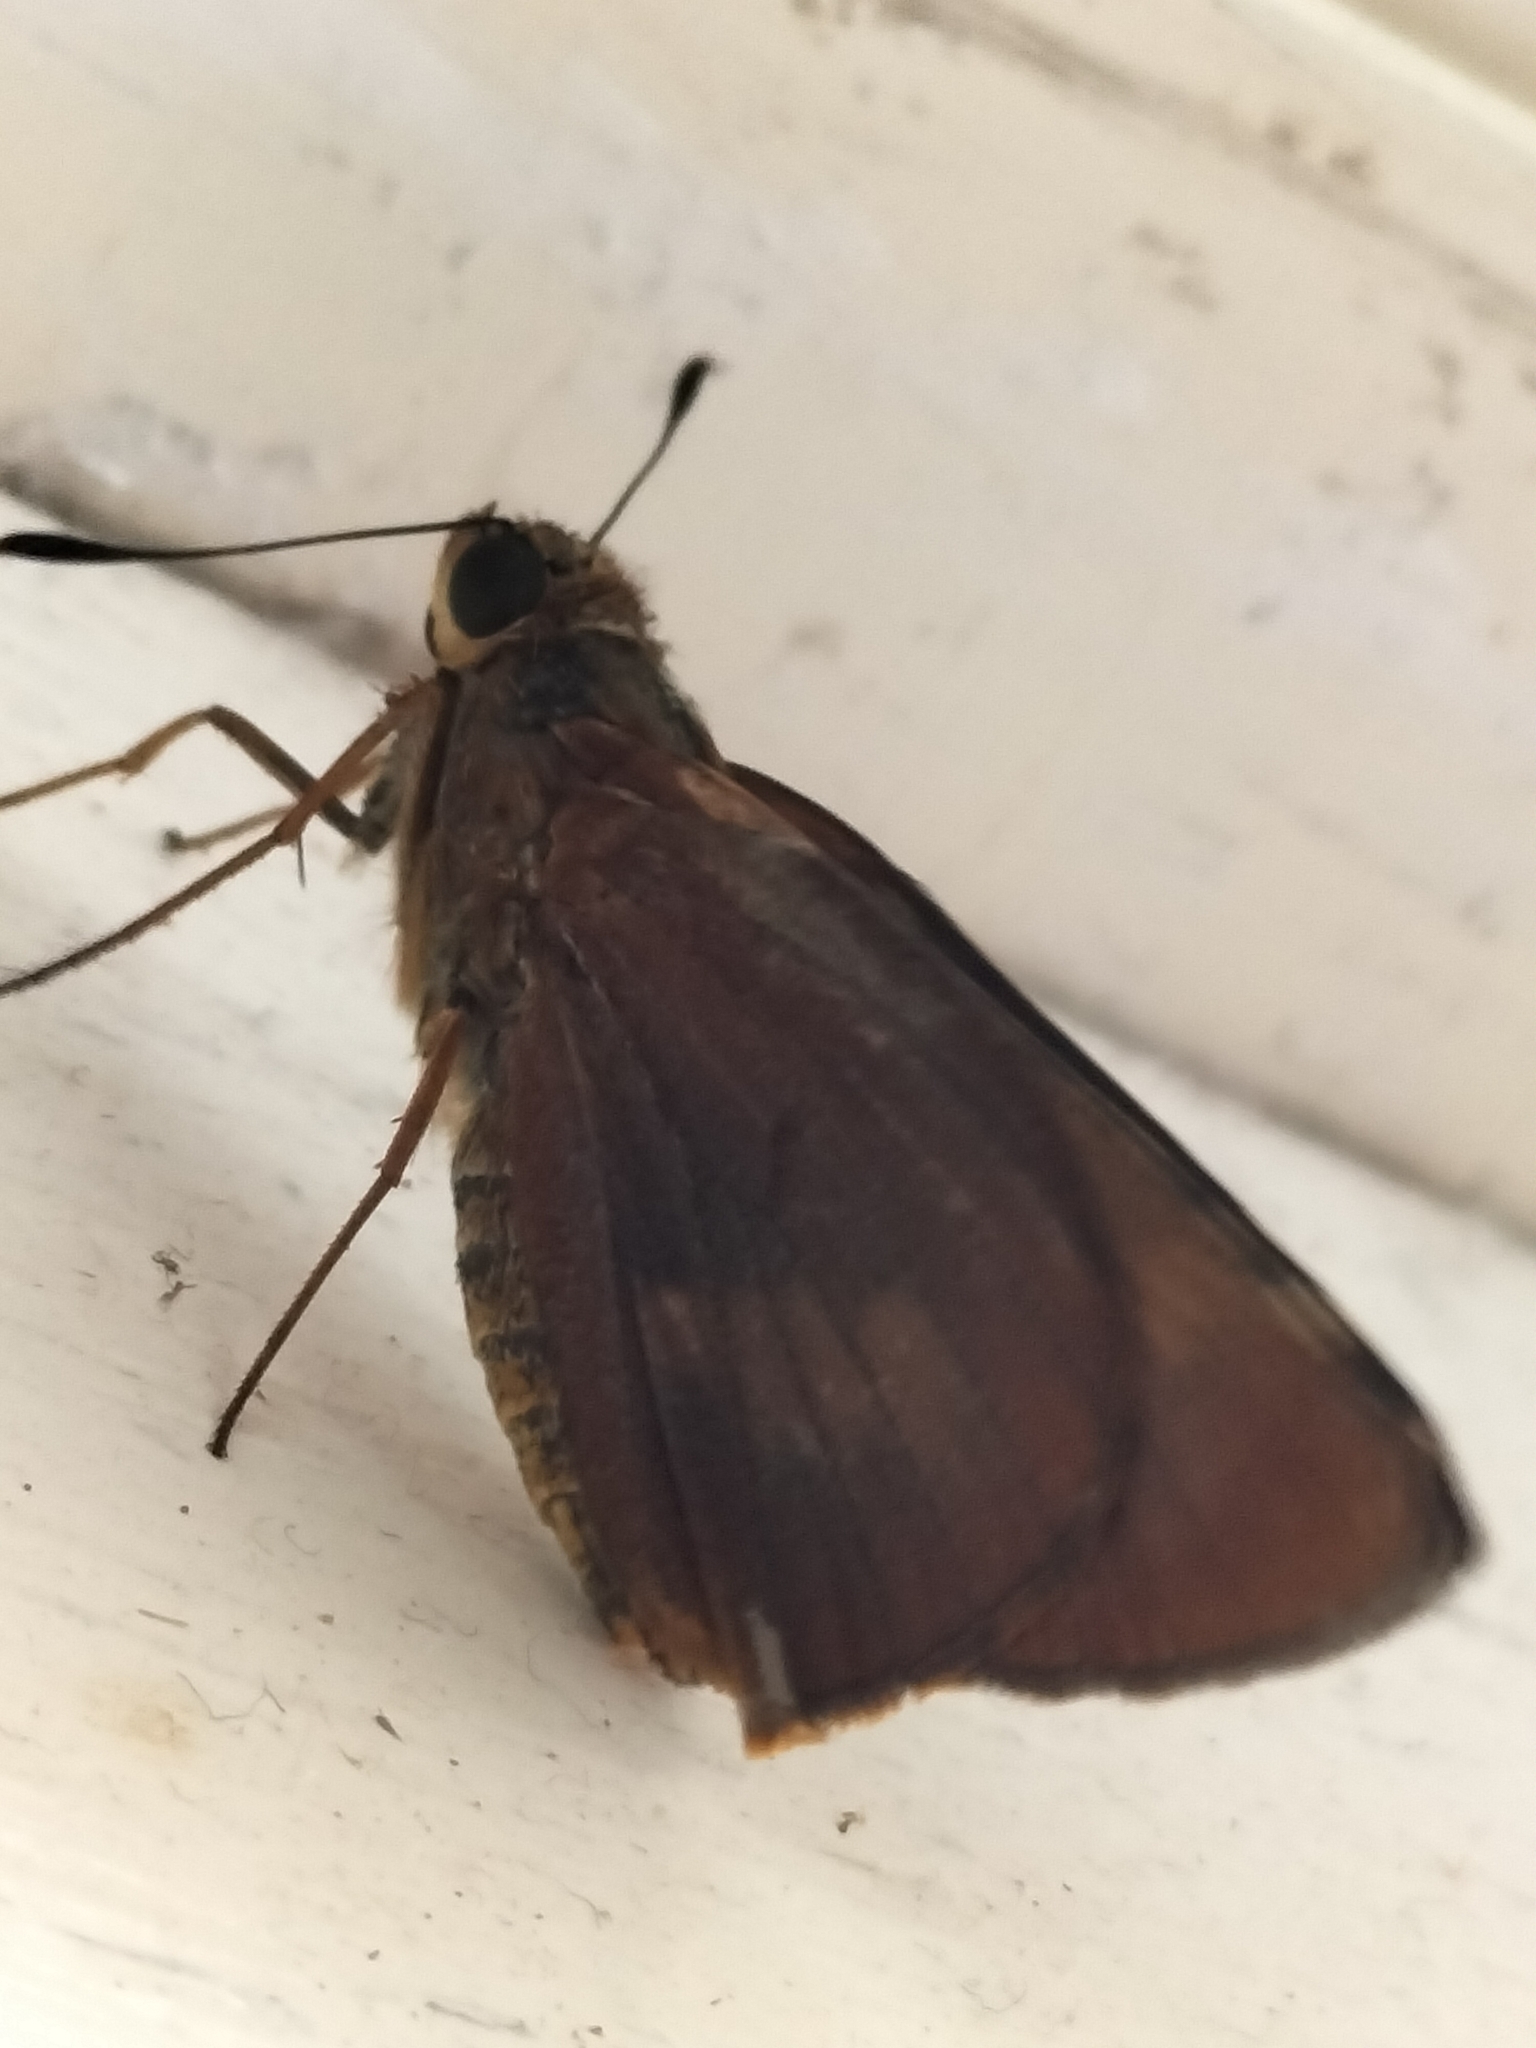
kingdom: Animalia
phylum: Arthropoda
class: Insecta
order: Lepidoptera
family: Hesperiidae
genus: Cephrenes
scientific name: Cephrenes augiades
